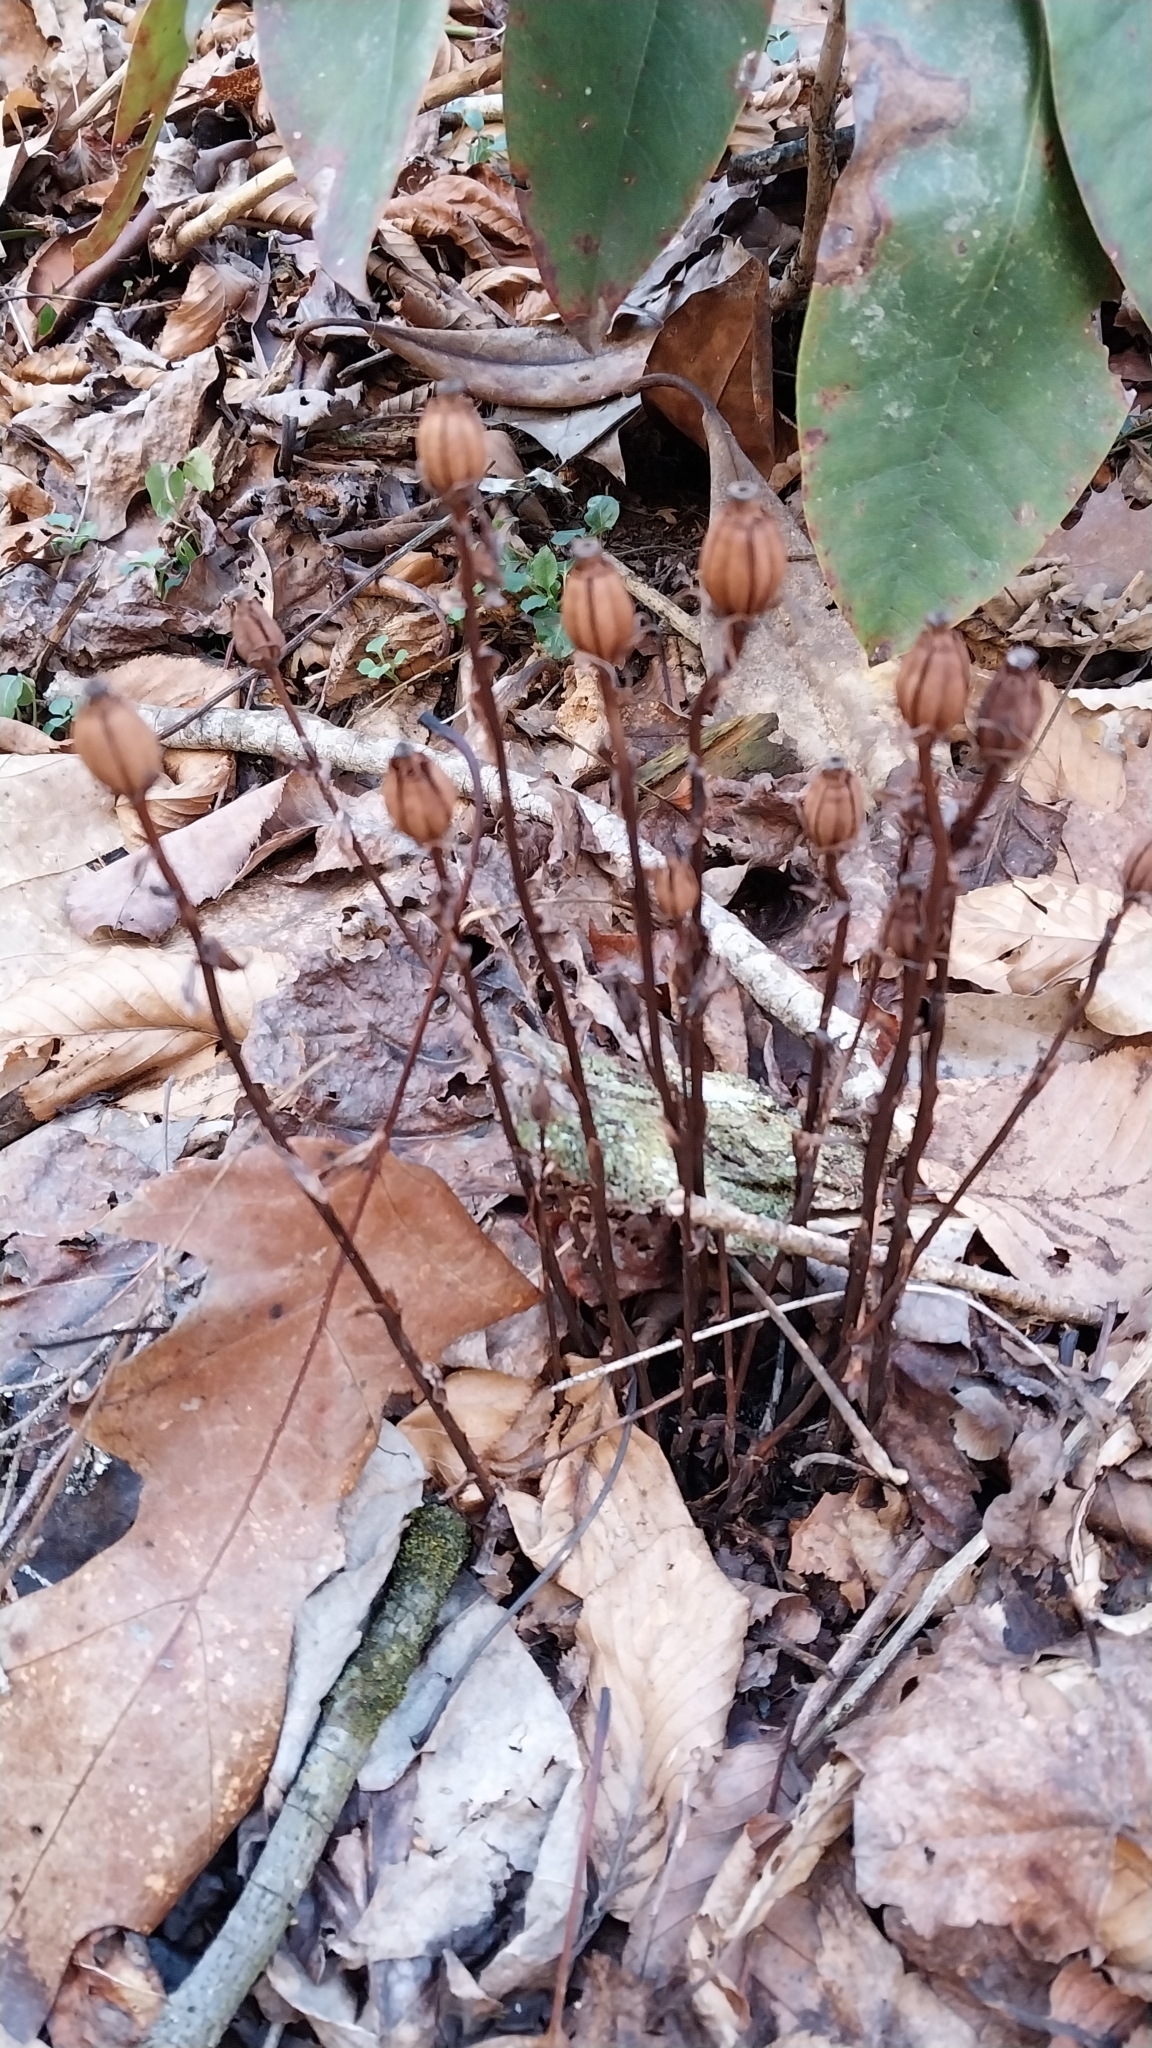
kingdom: Plantae
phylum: Tracheophyta
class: Magnoliopsida
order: Ericales
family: Ericaceae
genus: Monotropa
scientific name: Monotropa uniflora
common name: Convulsion root
